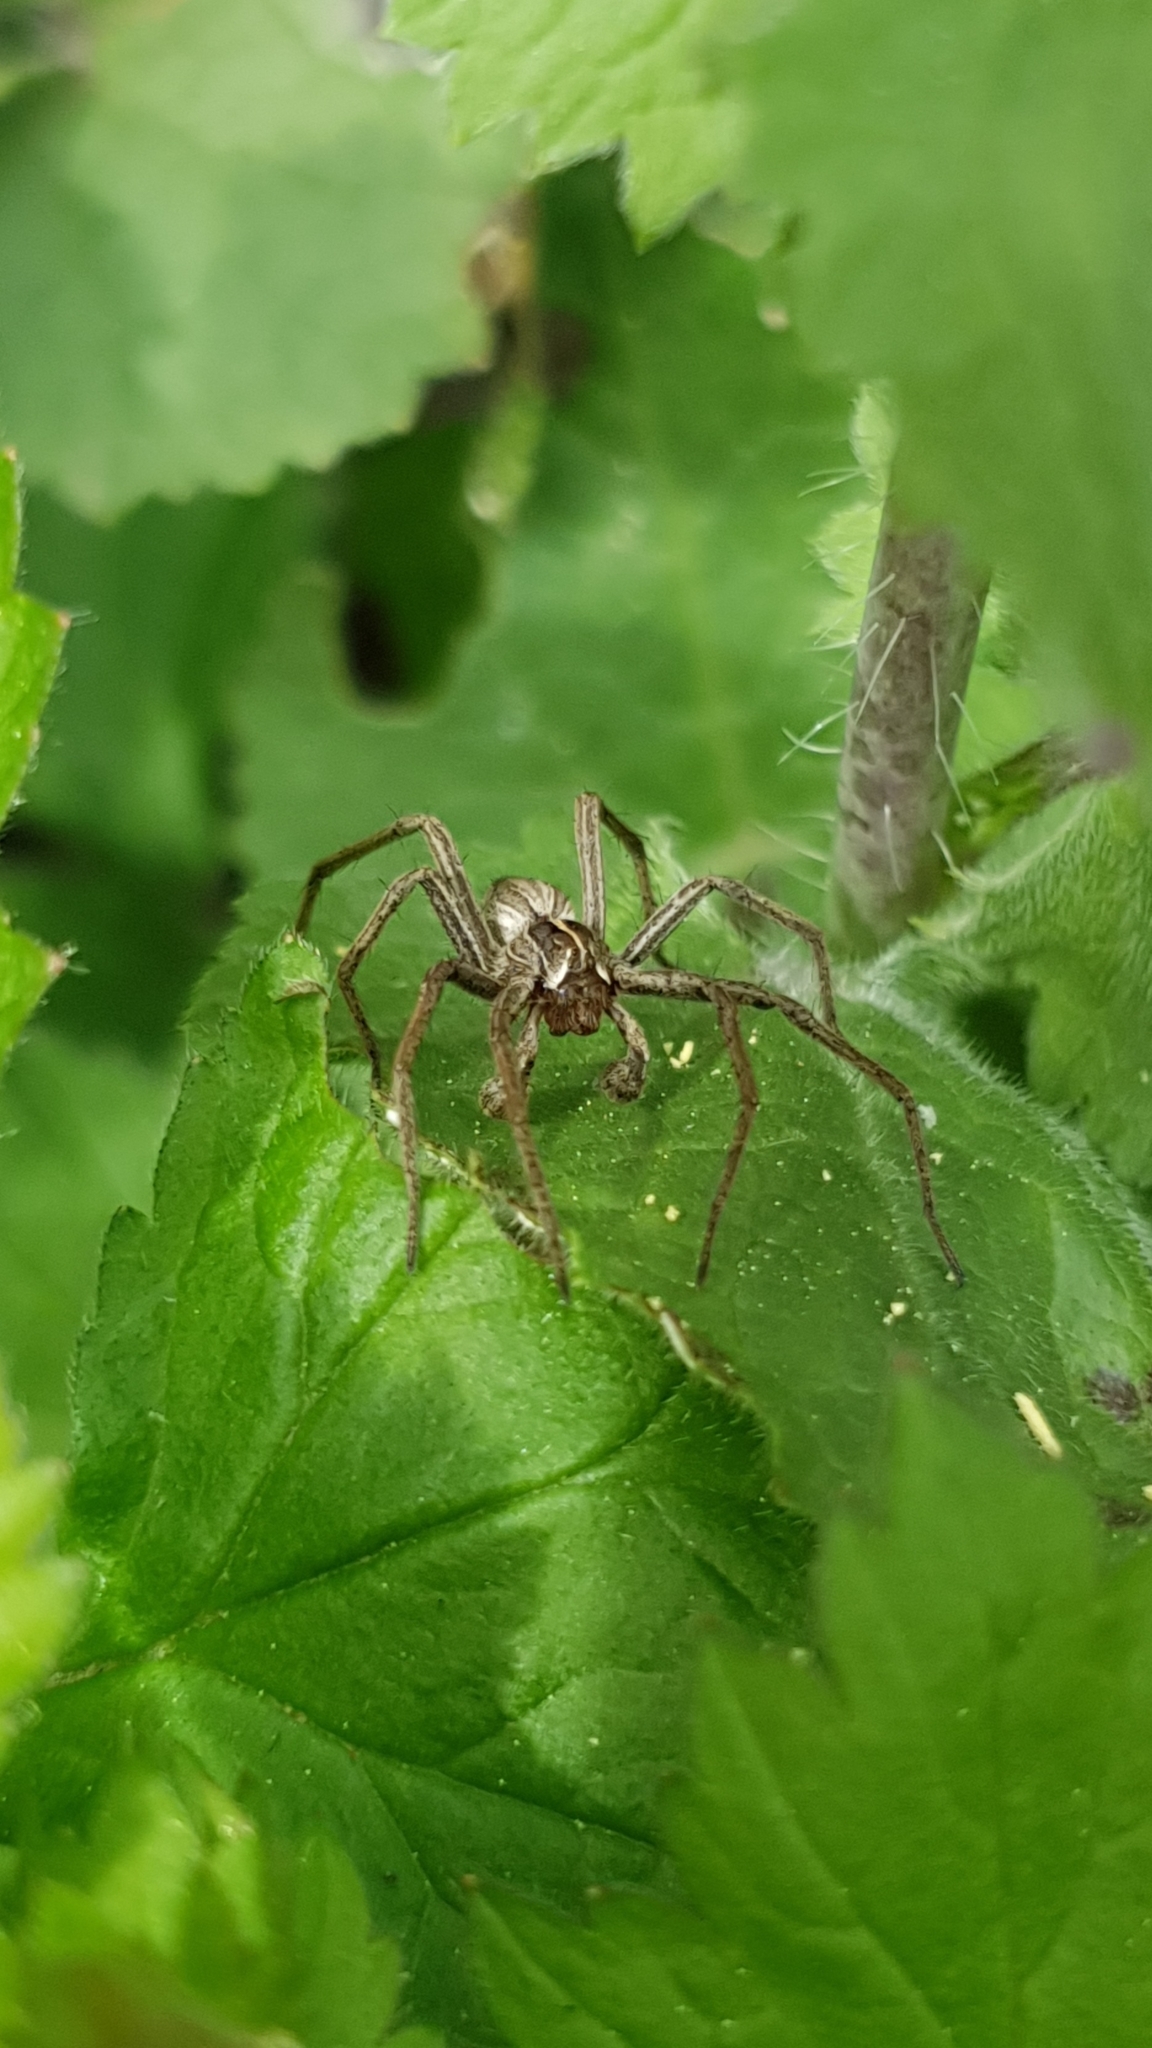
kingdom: Animalia
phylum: Arthropoda
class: Arachnida
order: Araneae
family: Pisauridae
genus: Pisaura
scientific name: Pisaura mirabilis
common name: Tent spider
